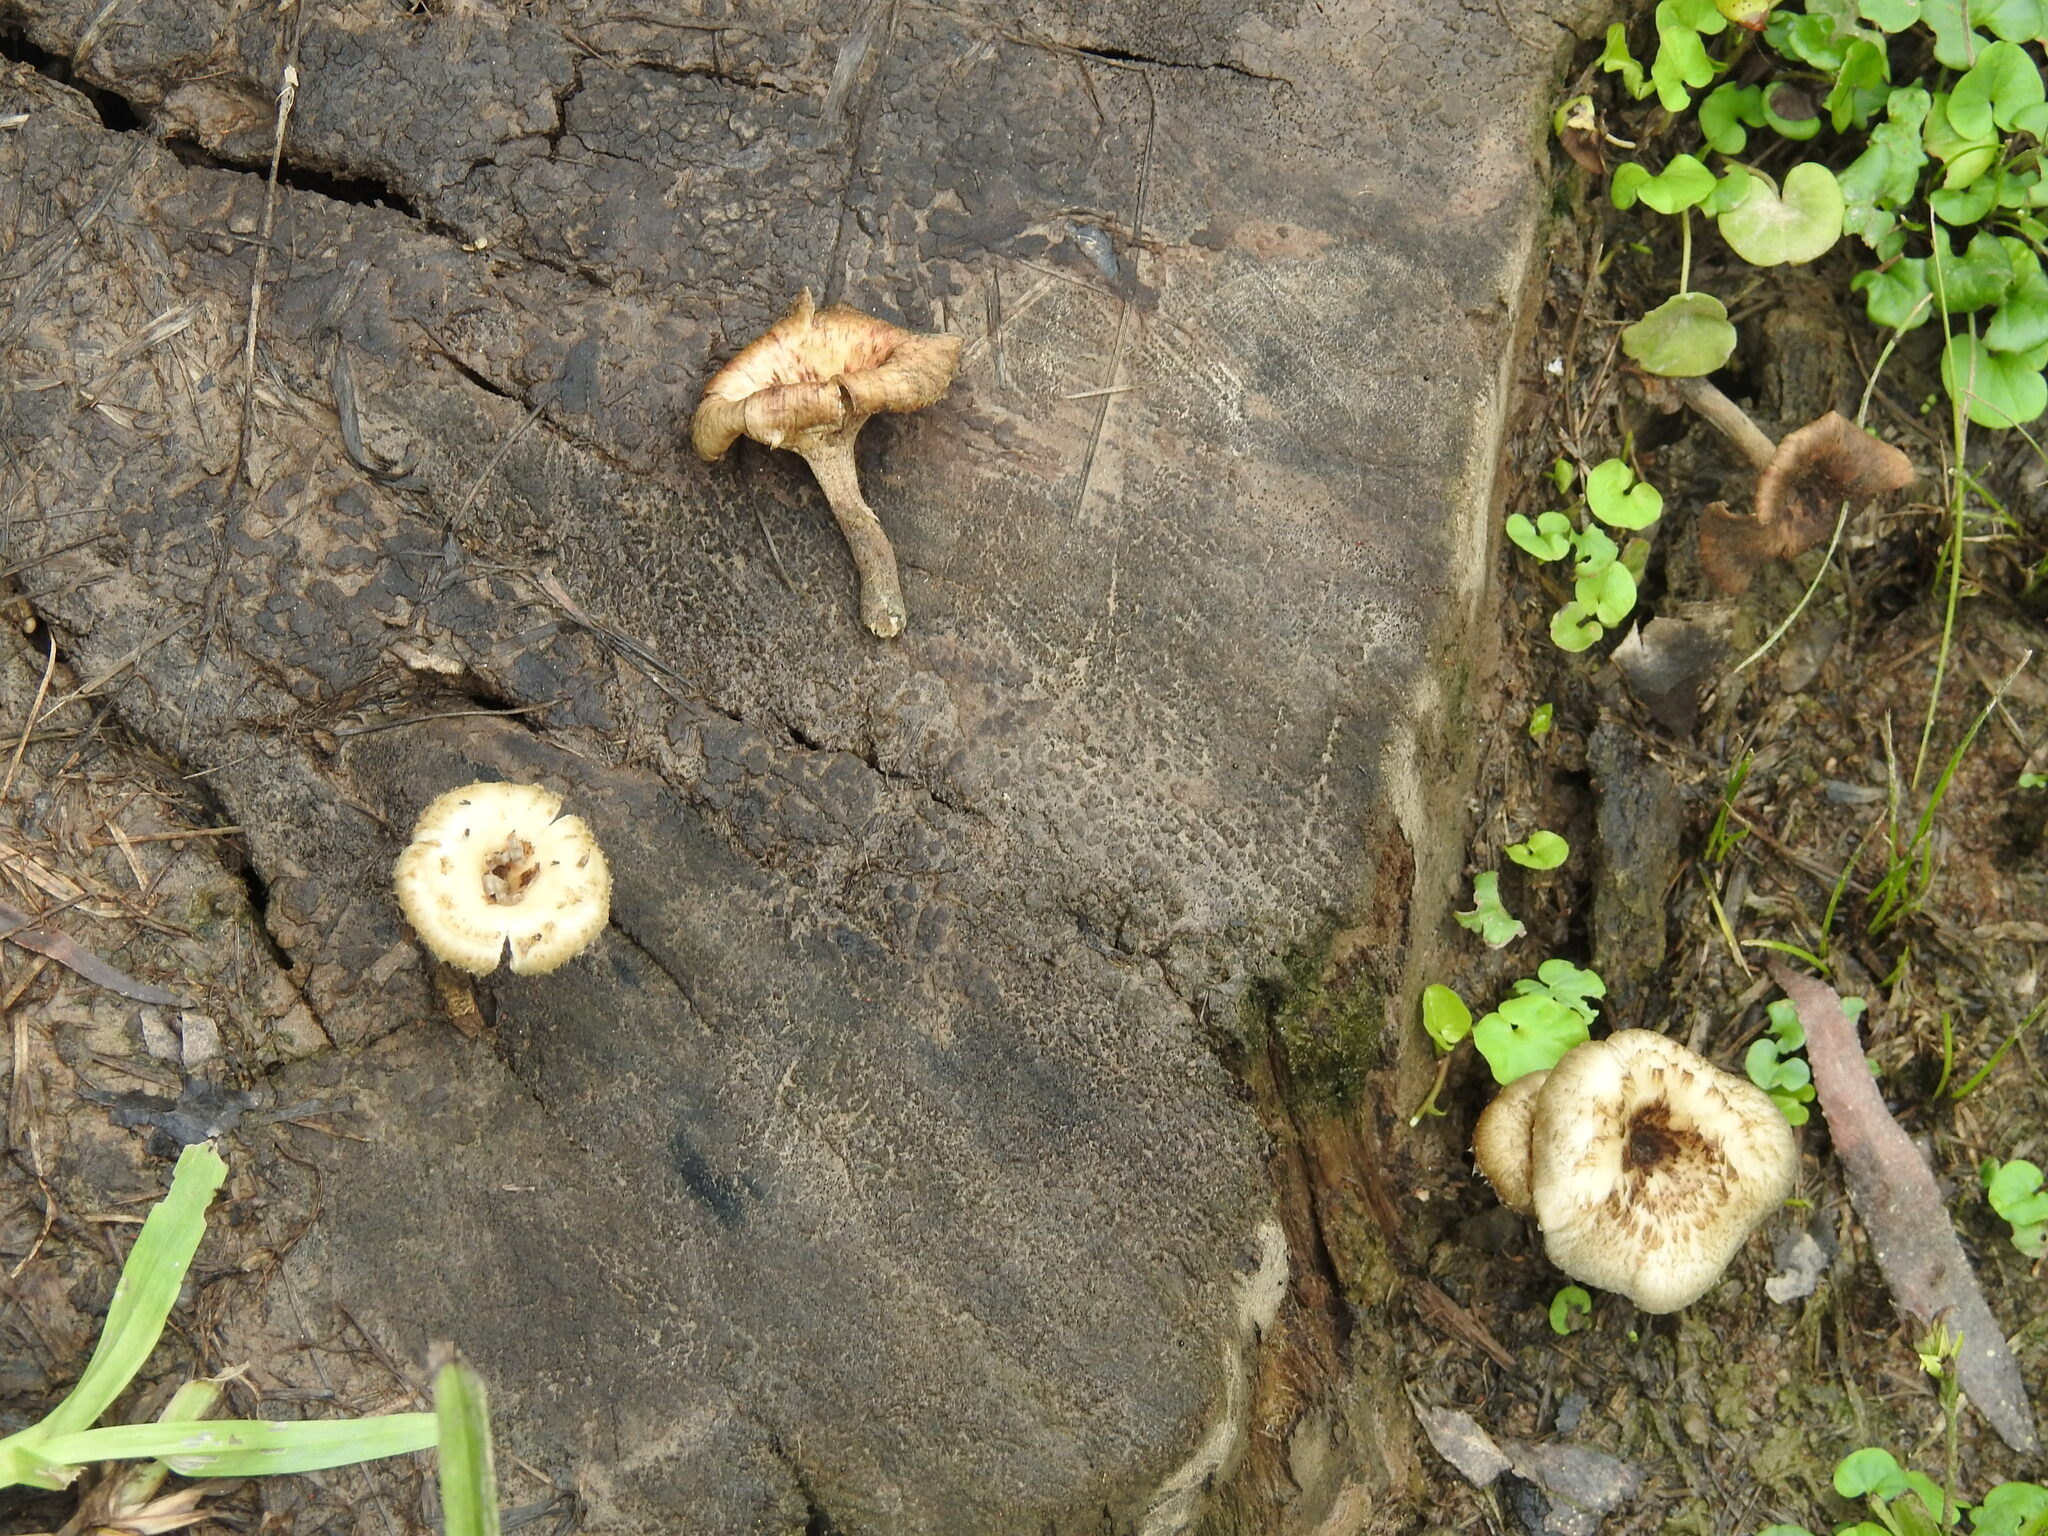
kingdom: Fungi
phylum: Basidiomycota
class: Agaricomycetes
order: Polyporales
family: Polyporaceae
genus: Lentinus
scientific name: Lentinus crinitus
